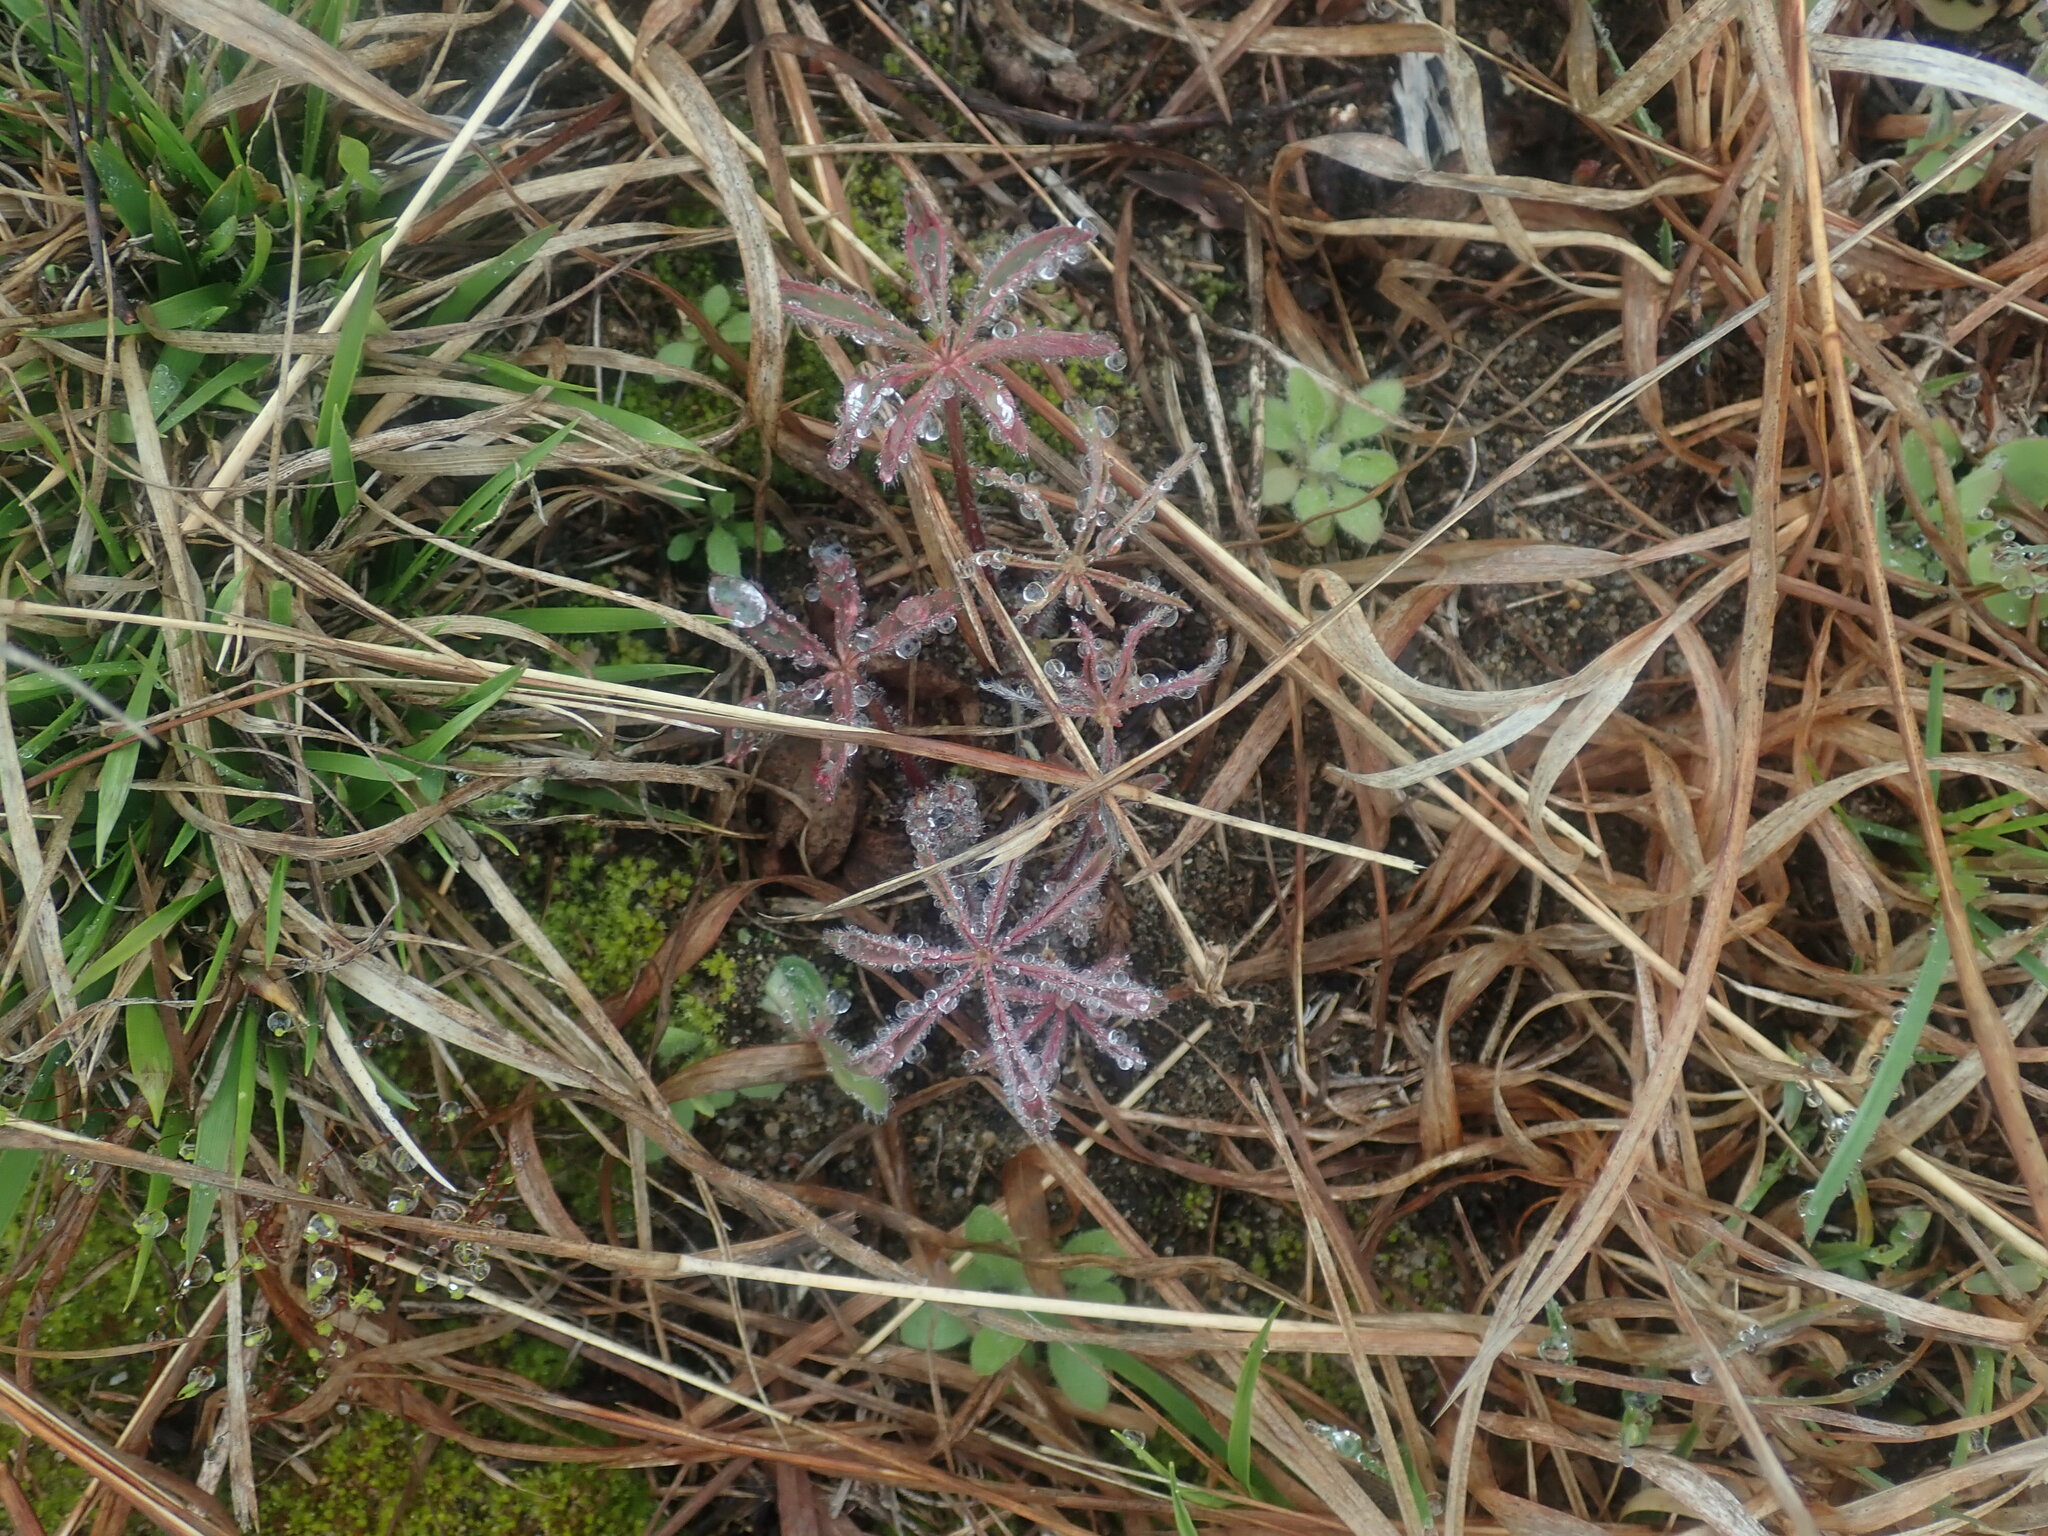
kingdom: Plantae
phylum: Tracheophyta
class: Magnoliopsida
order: Fabales
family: Fabaceae
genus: Lupinus
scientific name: Lupinus perennis
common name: Sundial lupine
